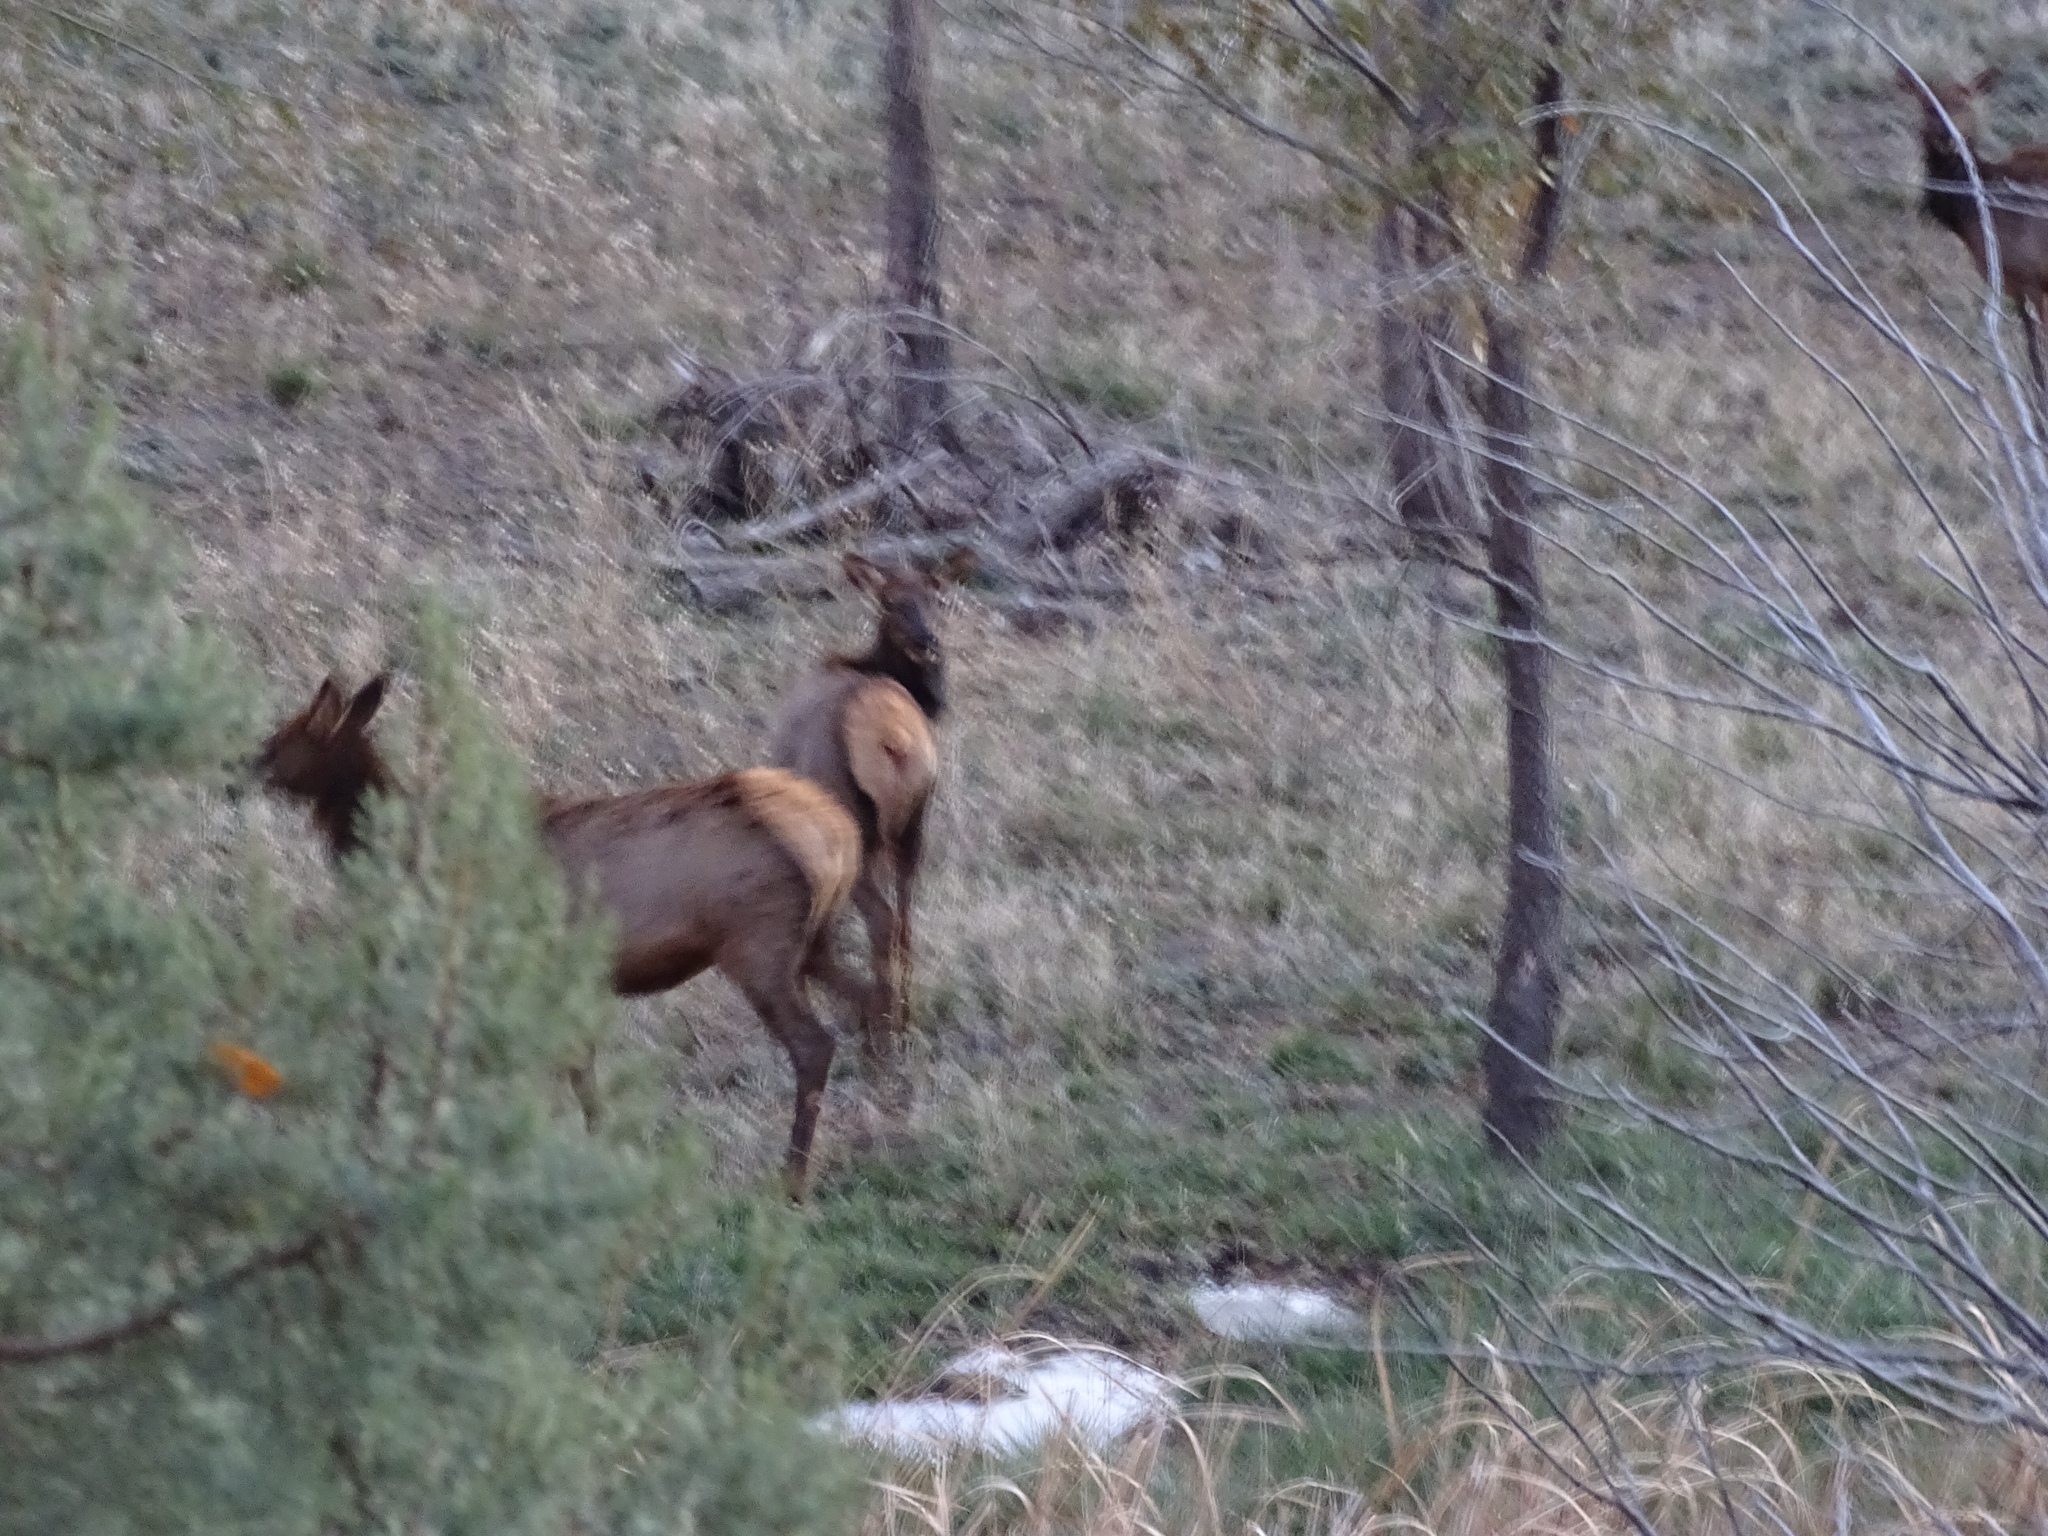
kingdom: Animalia
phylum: Chordata
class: Mammalia
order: Artiodactyla
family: Cervidae
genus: Cervus
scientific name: Cervus elaphus
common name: Red deer
